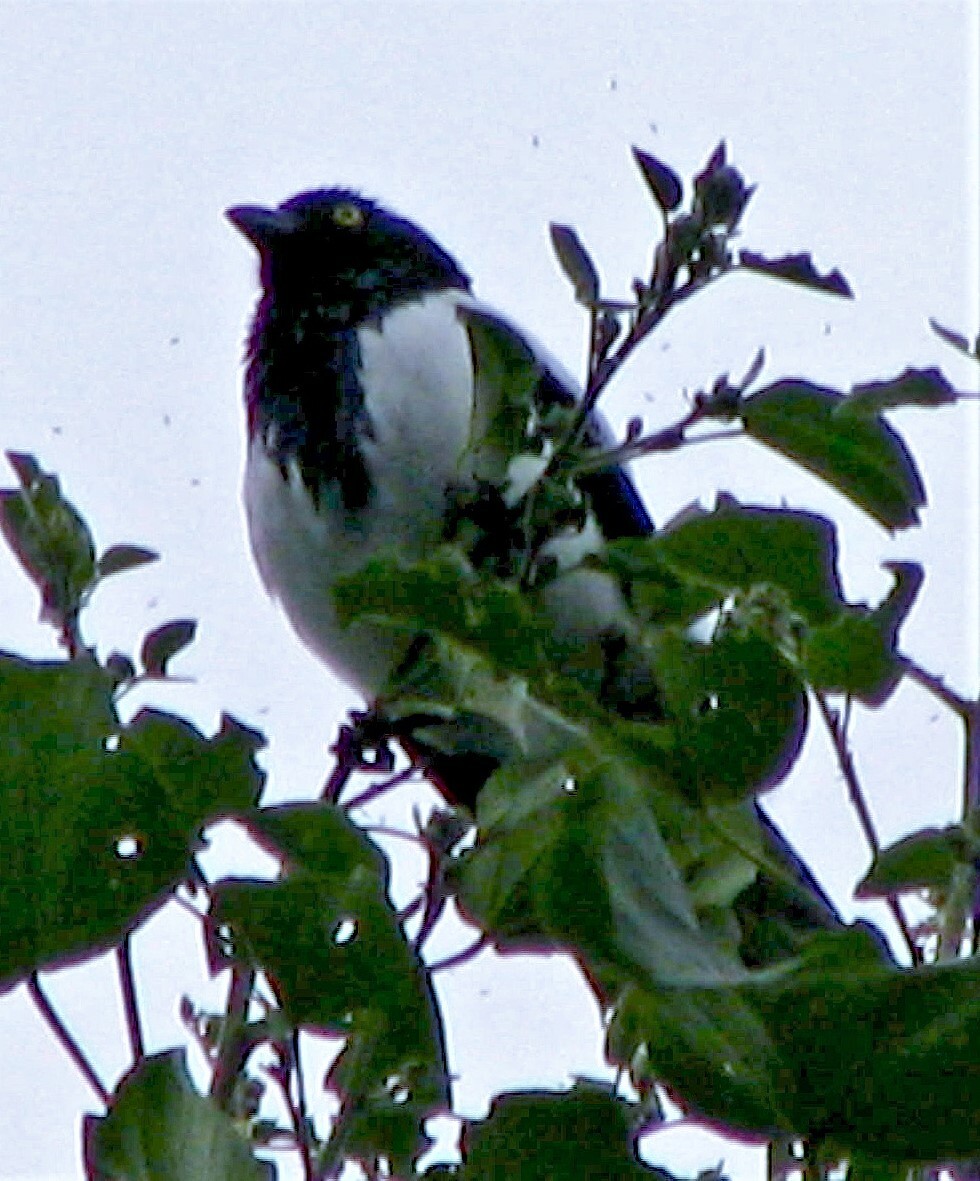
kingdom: Animalia
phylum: Chordata
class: Aves
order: Passeriformes
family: Thraupidae
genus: Cissopis
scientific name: Cissopis leverianus
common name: Magpie tanager
